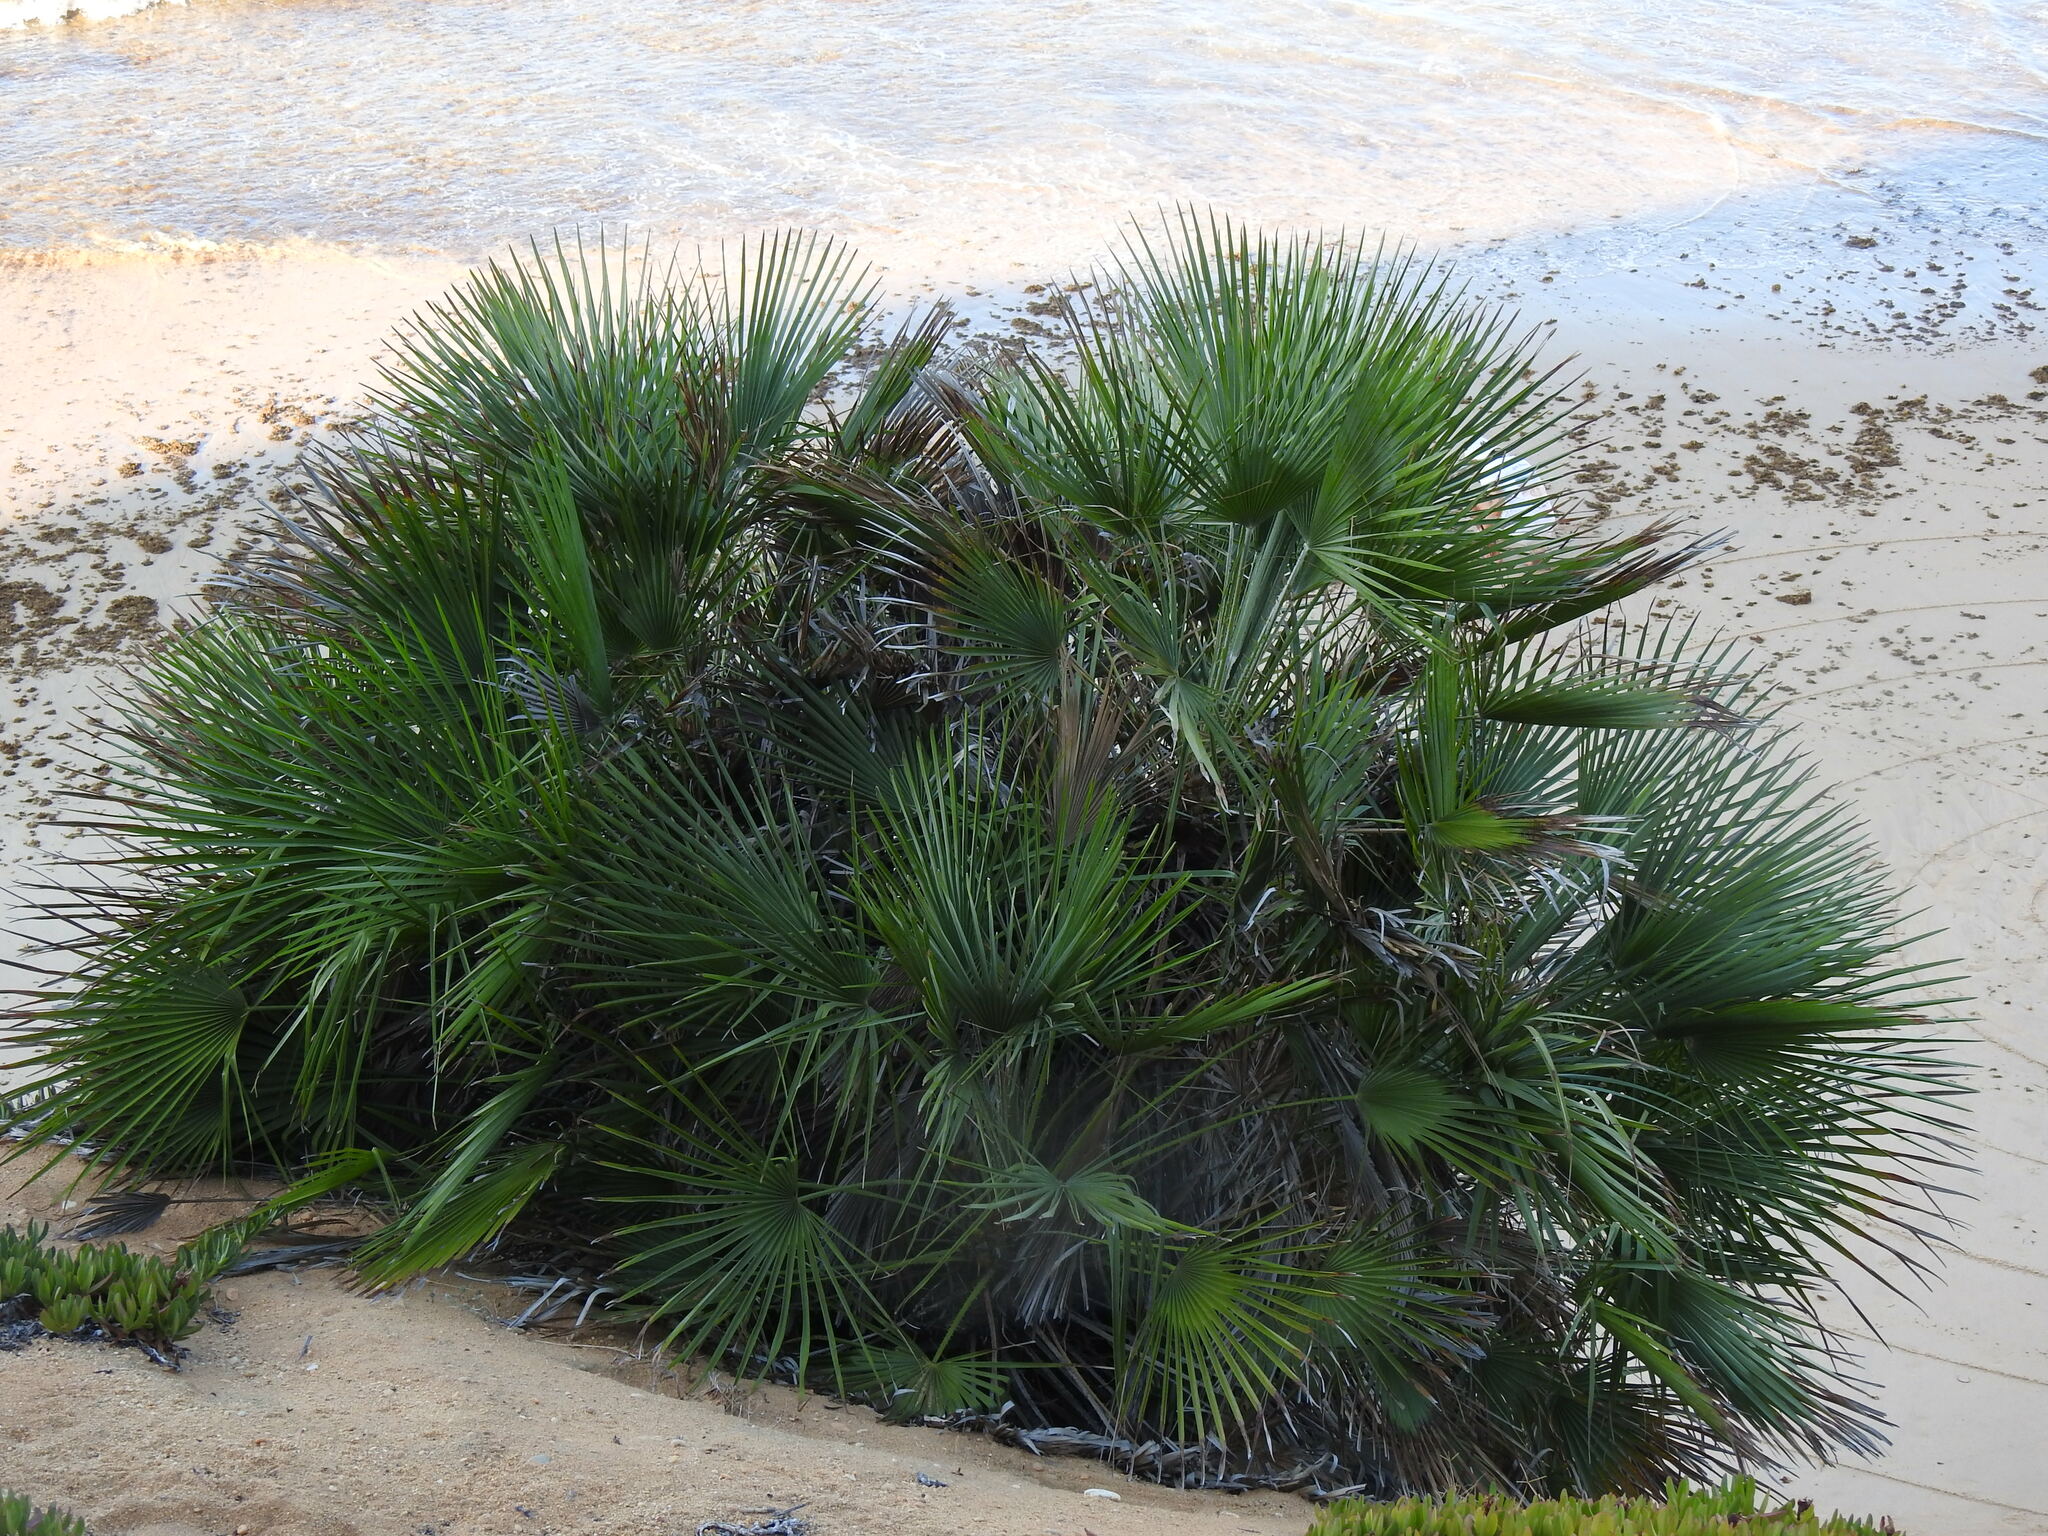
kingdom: Plantae
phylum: Tracheophyta
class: Liliopsida
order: Arecales
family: Arecaceae
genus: Chamaerops
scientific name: Chamaerops humilis
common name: Dwarf fan palm
